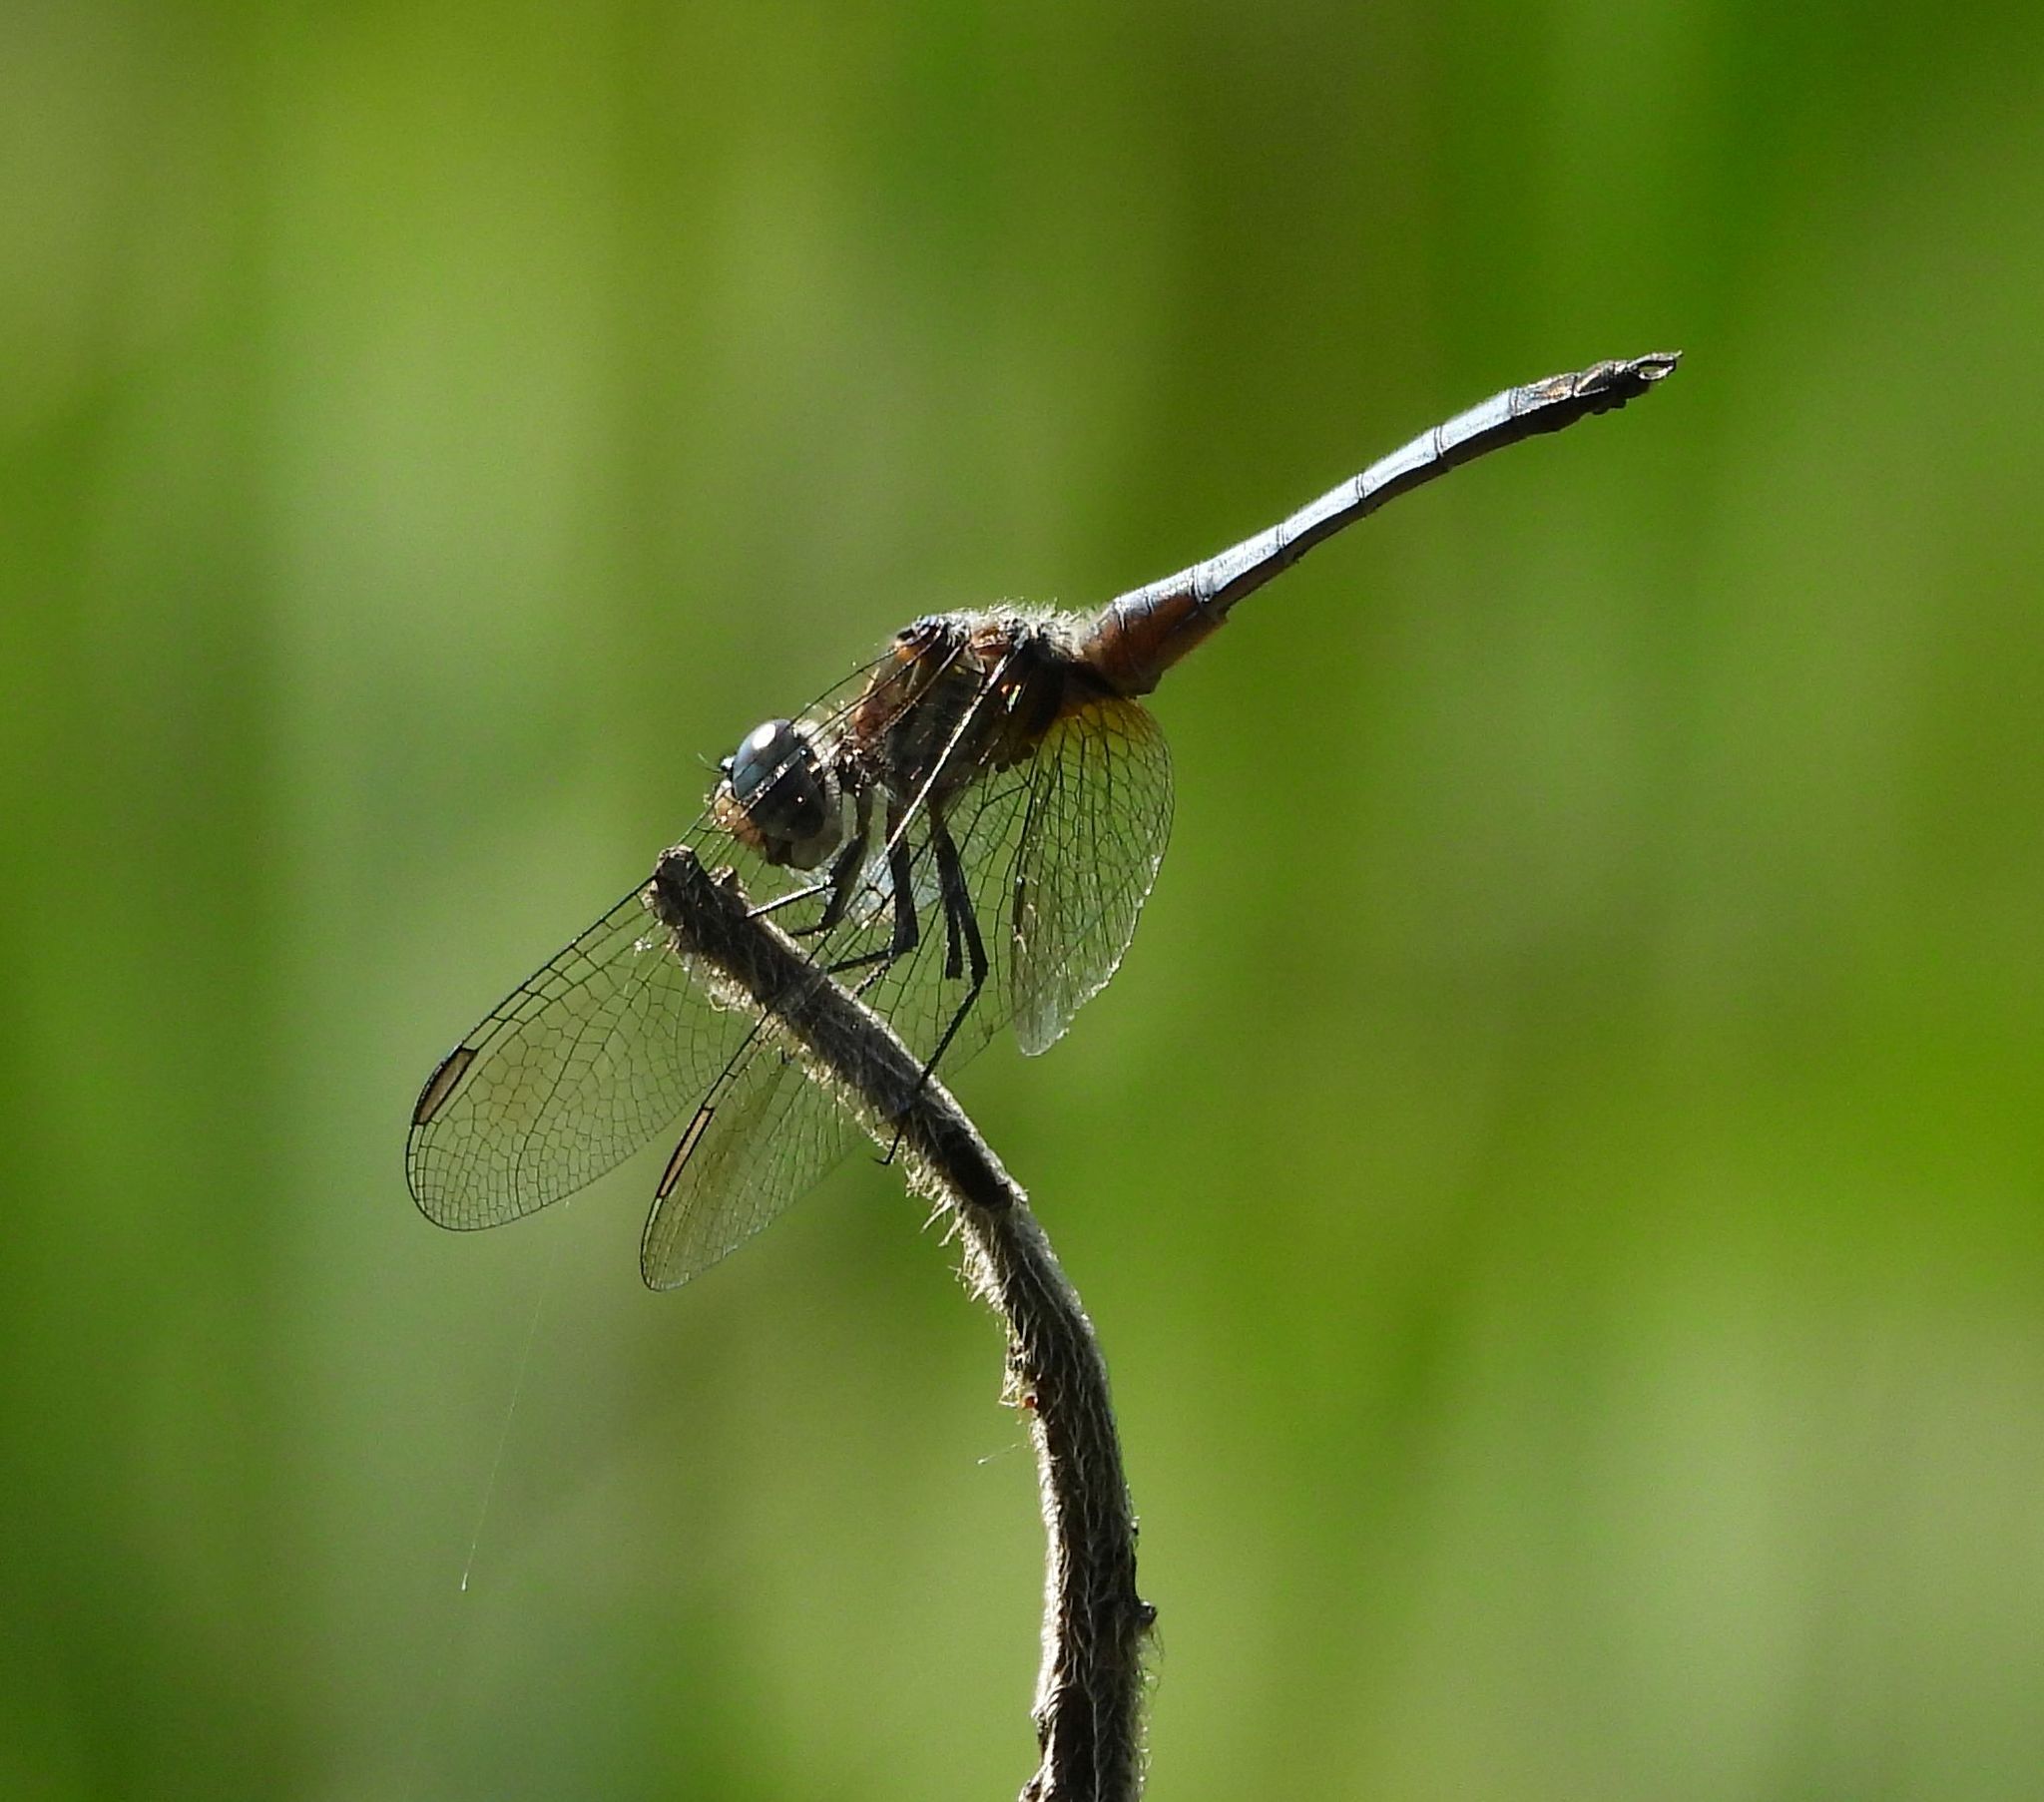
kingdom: Animalia
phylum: Arthropoda
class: Insecta
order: Odonata
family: Libellulidae
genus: Pachydiplax
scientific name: Pachydiplax longipennis
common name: Blue dasher
